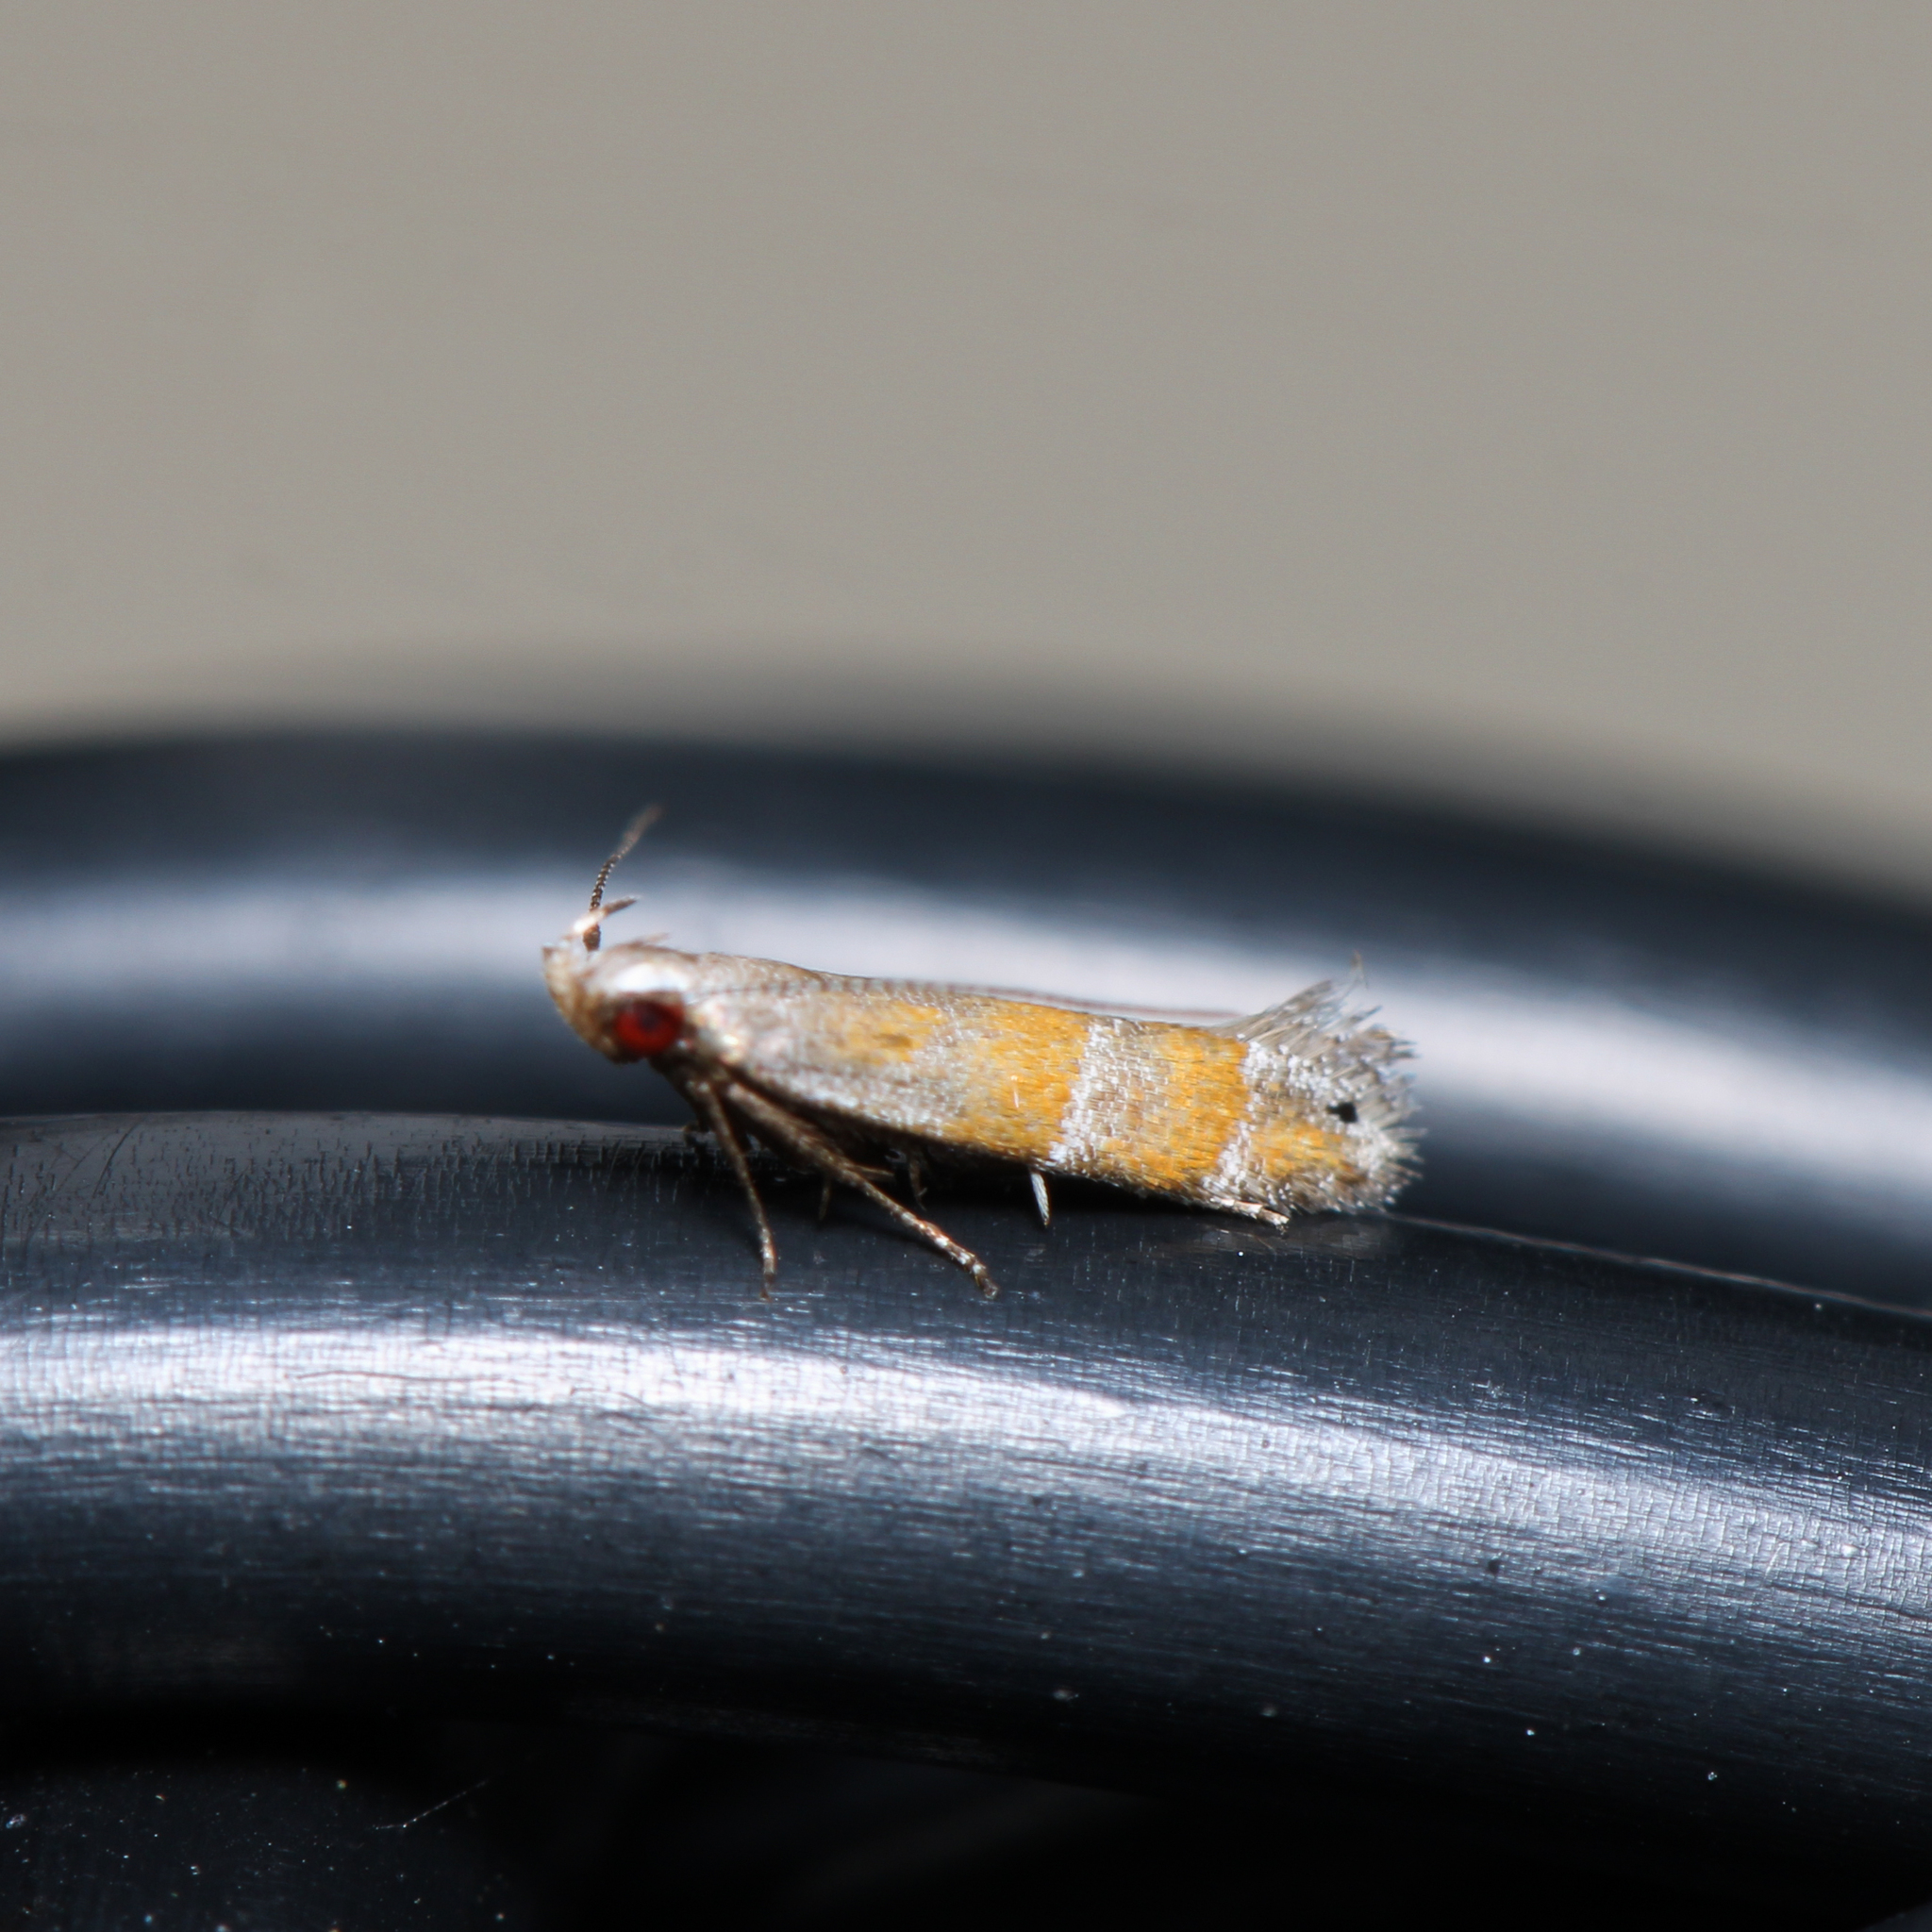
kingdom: Animalia
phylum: Arthropoda
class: Insecta
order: Lepidoptera
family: Gelechiidae
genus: Battaristis
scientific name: Battaristis vittella
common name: Orange stripe-backed moth
